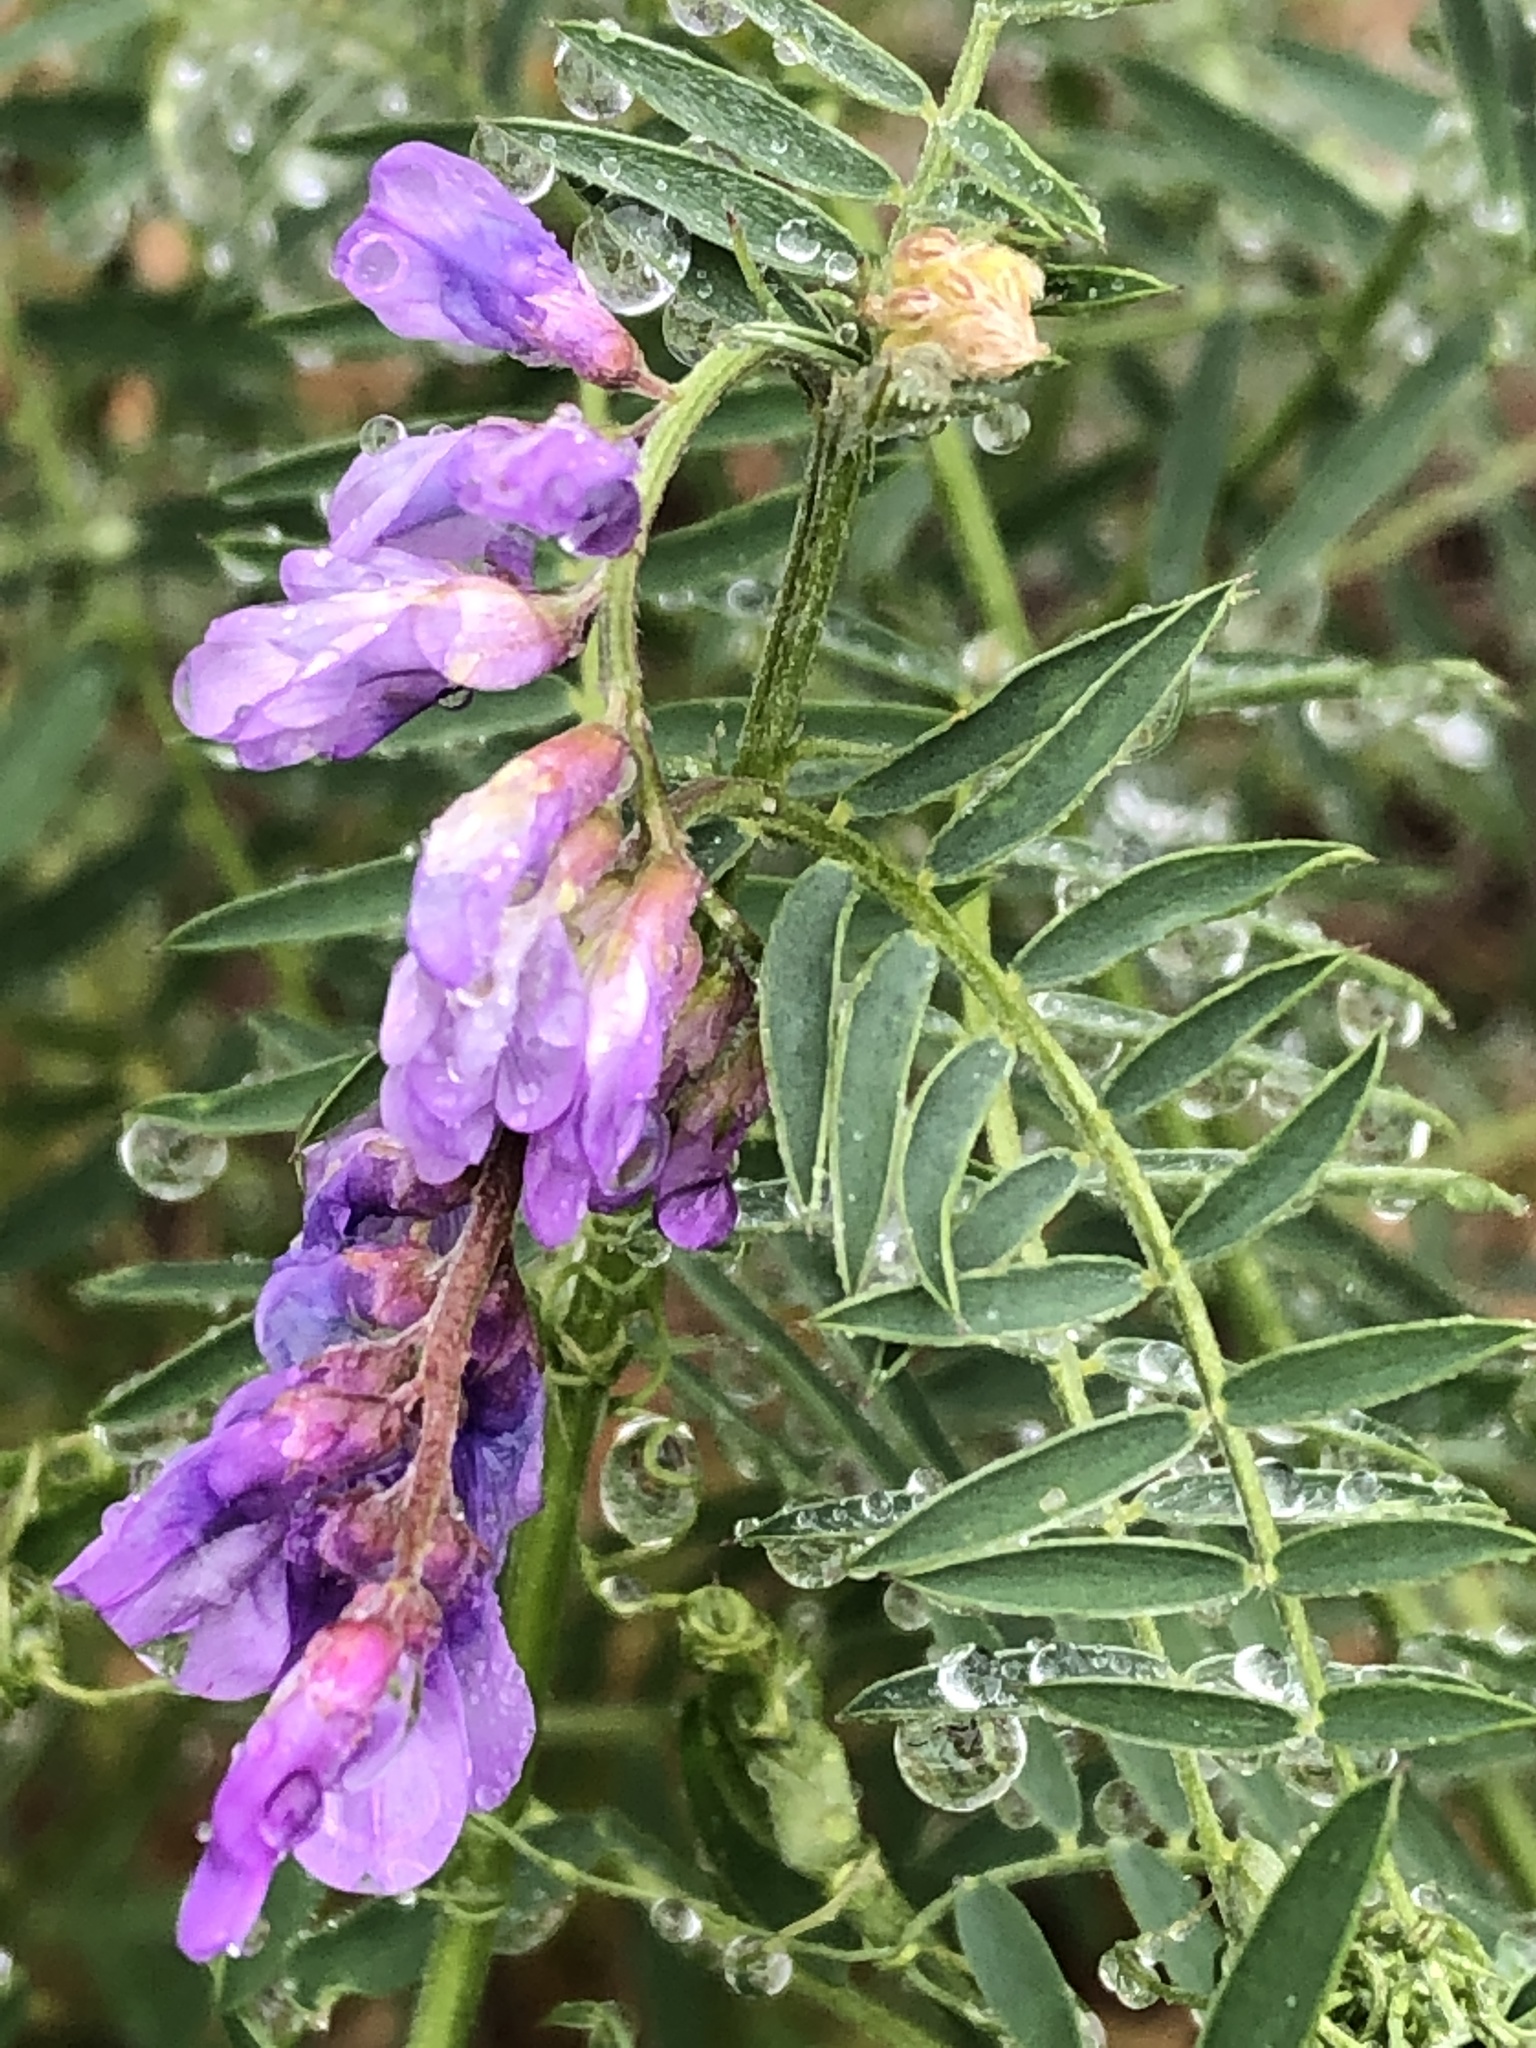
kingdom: Plantae
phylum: Tracheophyta
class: Magnoliopsida
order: Fabales
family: Fabaceae
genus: Vicia
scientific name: Vicia cracca
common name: Bird vetch
